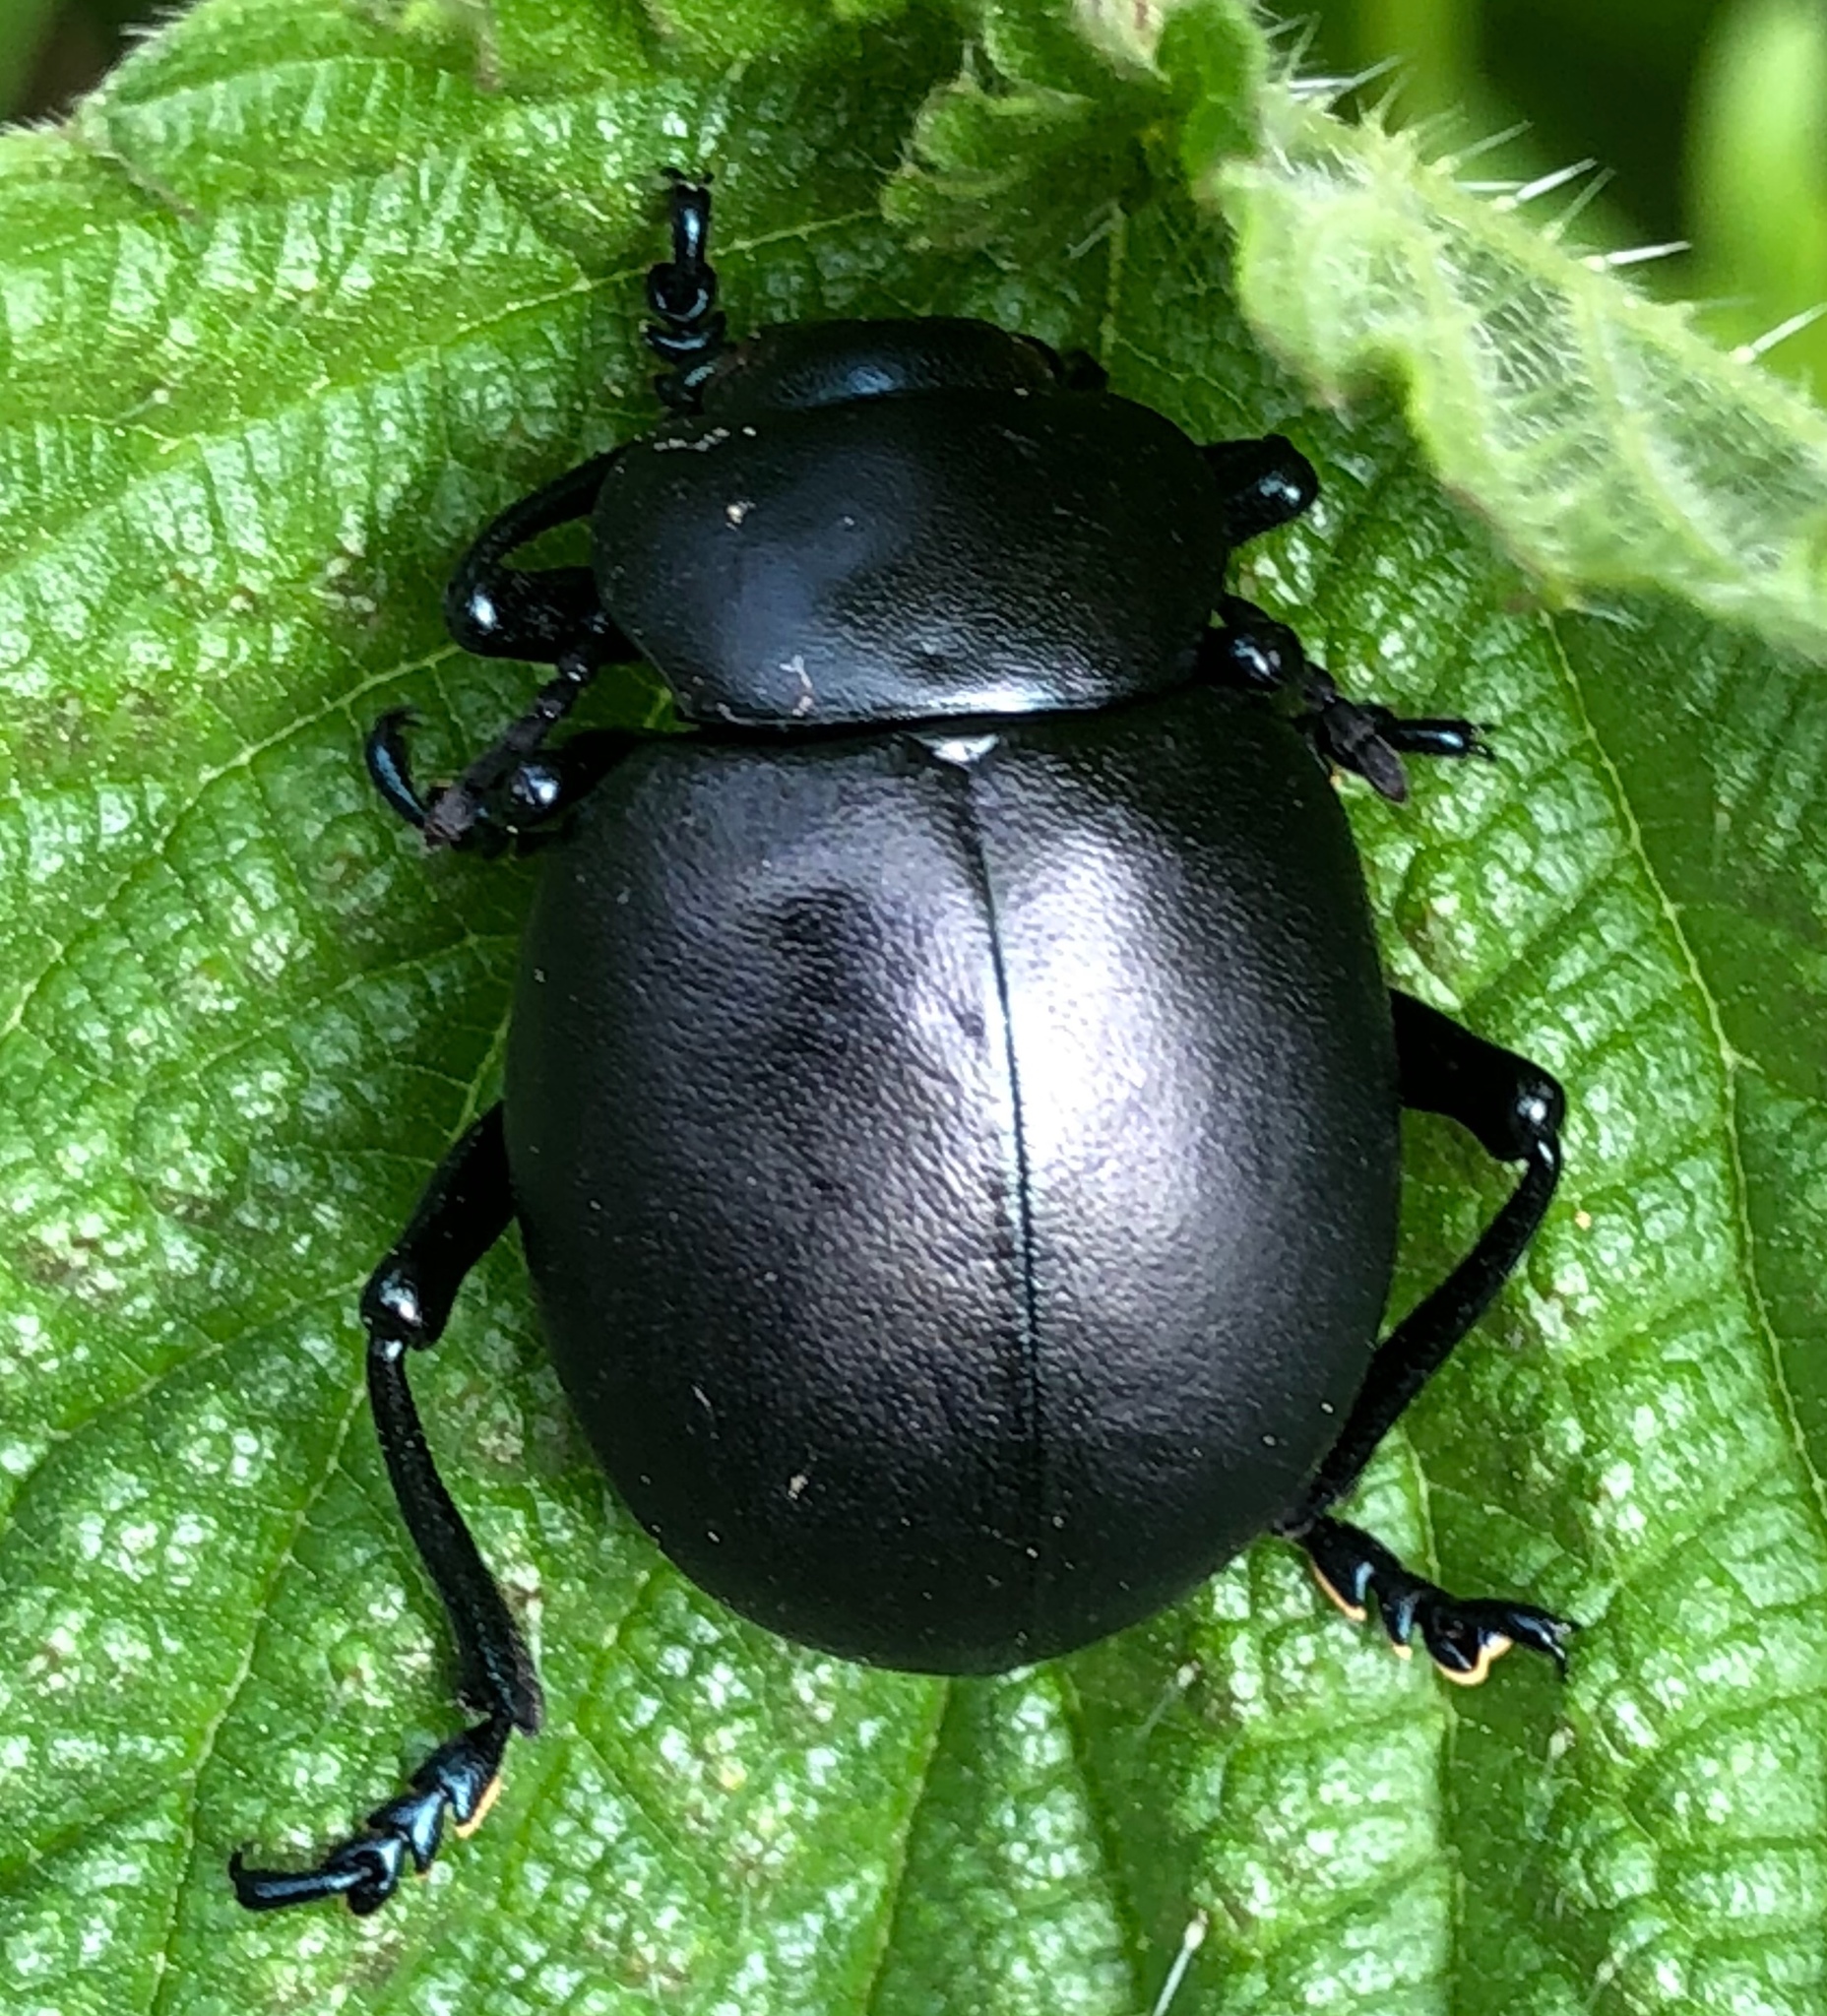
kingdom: Animalia
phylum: Arthropoda
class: Insecta
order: Coleoptera
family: Chrysomelidae
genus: Timarcha
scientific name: Timarcha tenebricosa
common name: Bloody-nosed beetle
